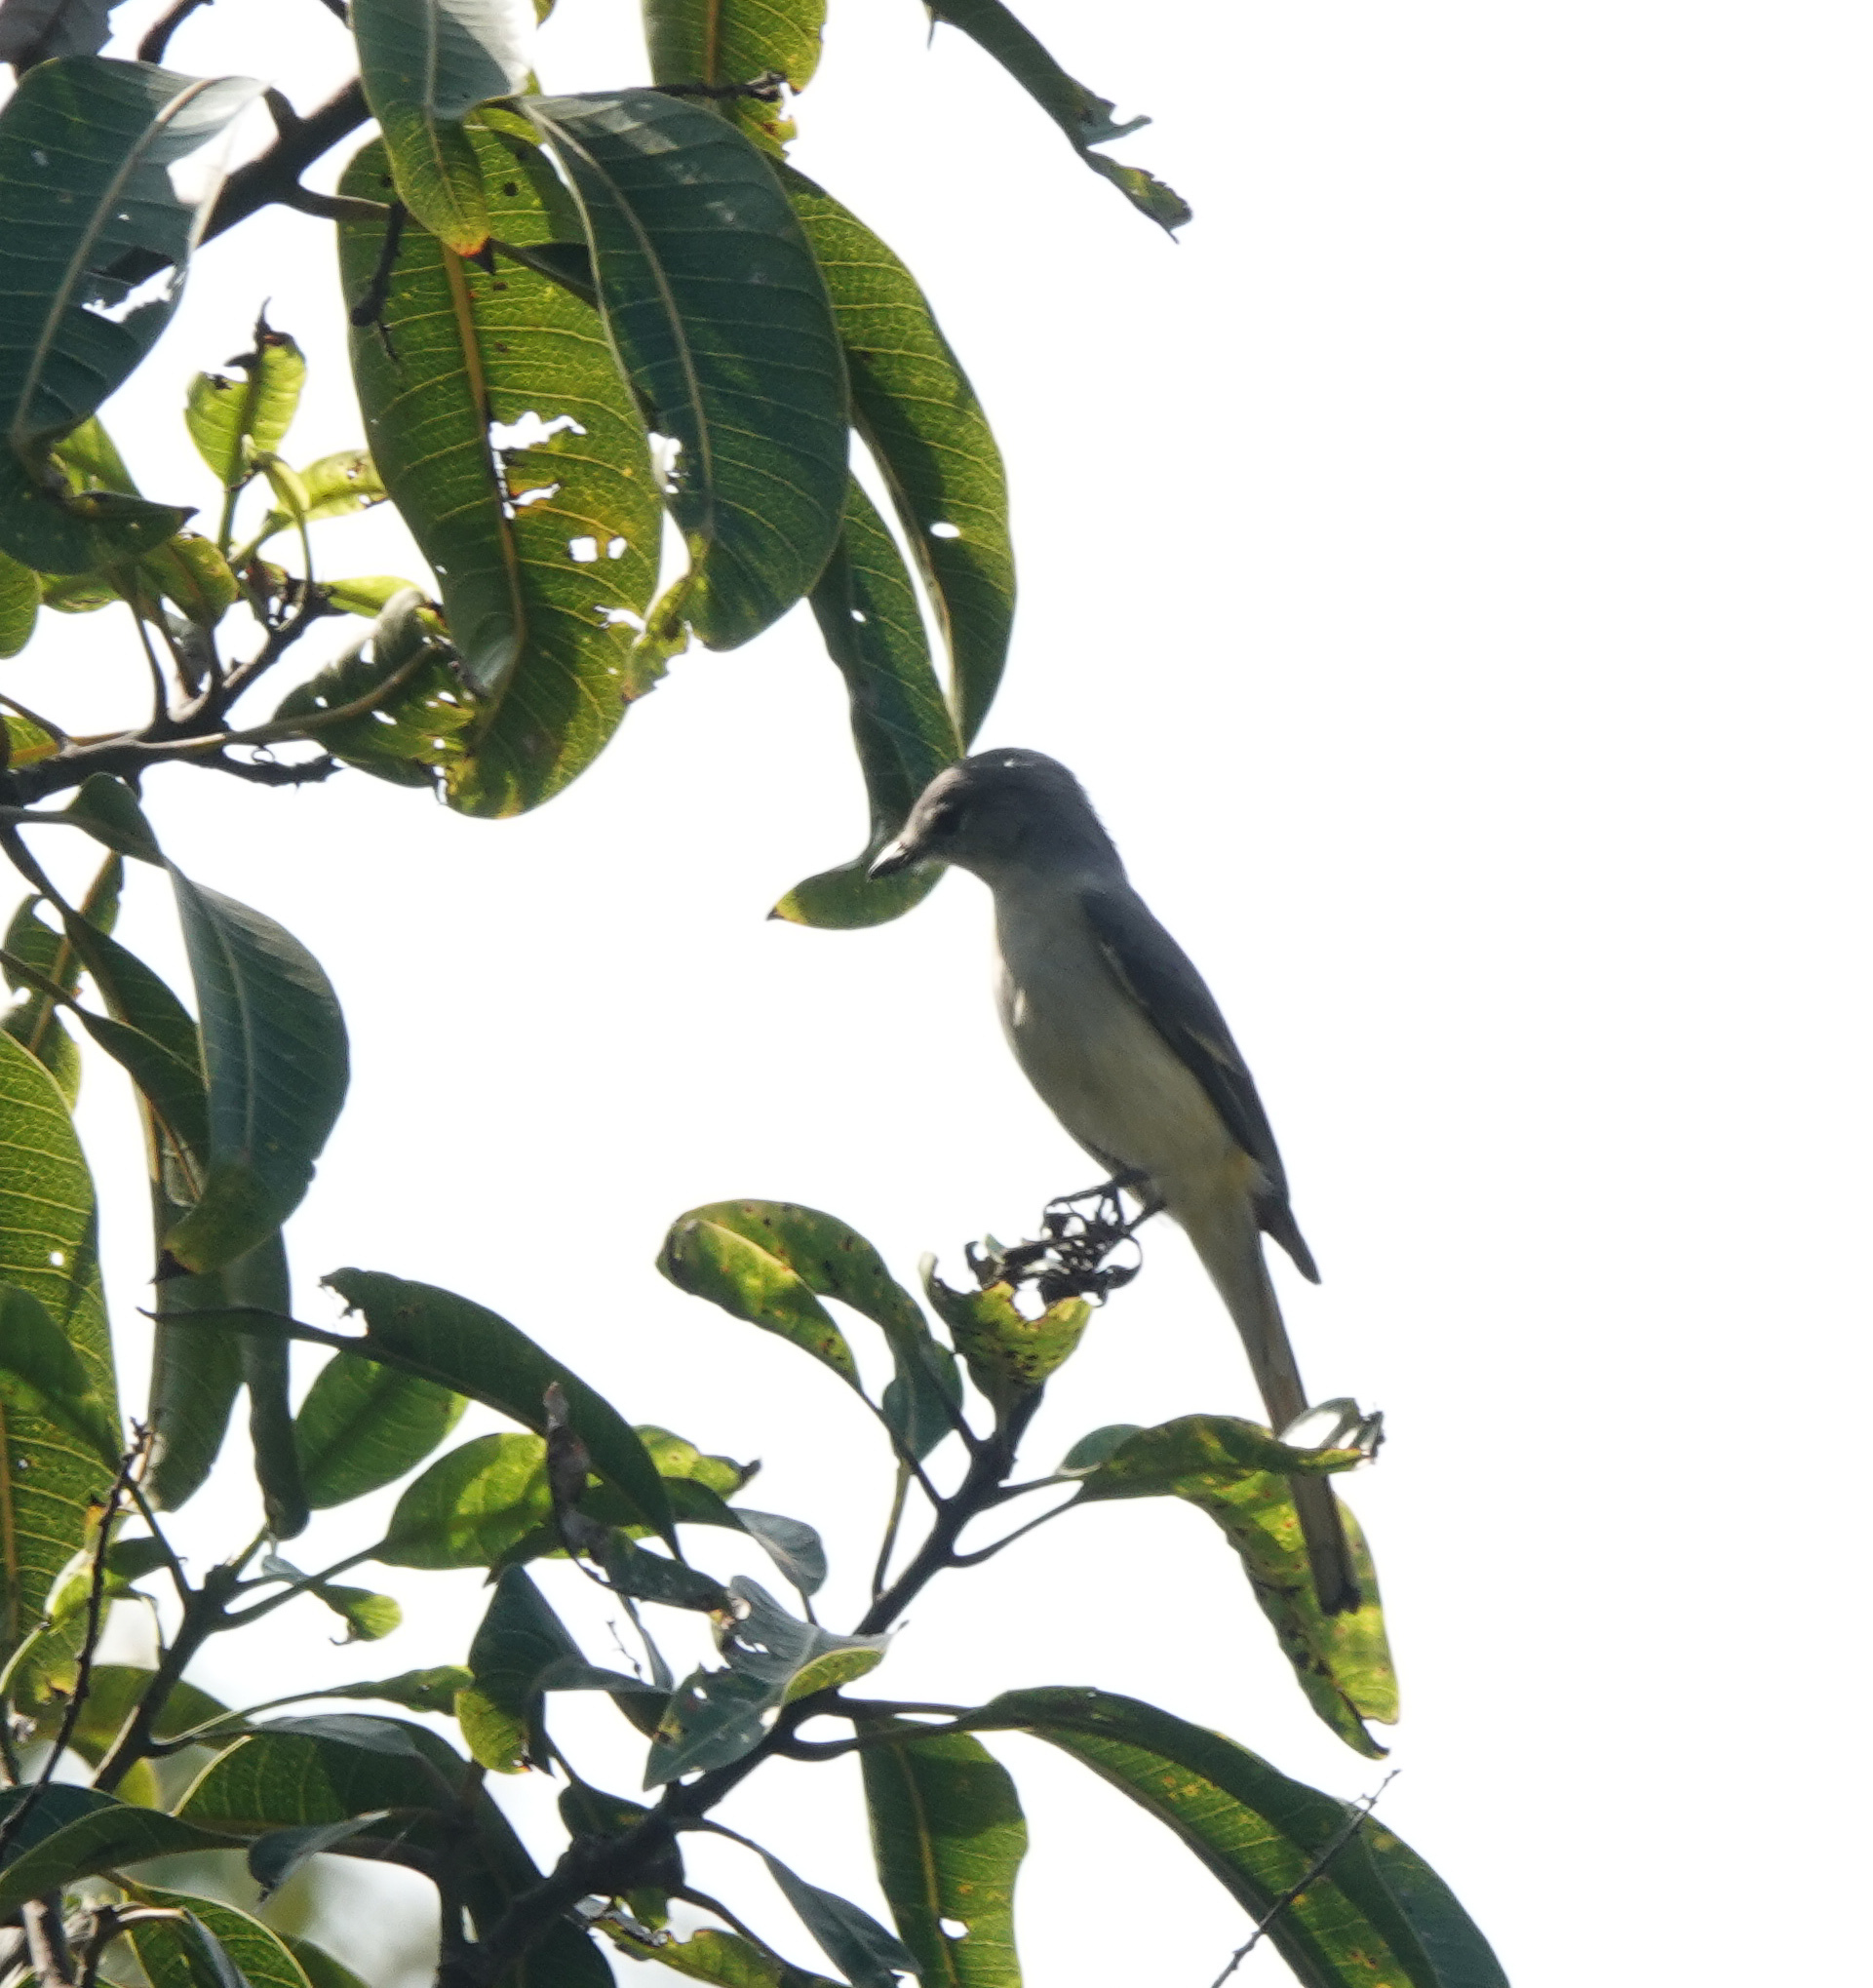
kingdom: Animalia
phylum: Chordata
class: Aves
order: Passeriformes
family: Campephagidae
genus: Pericrocotus
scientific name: Pericrocotus cinnamomeus
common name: Small minivet
